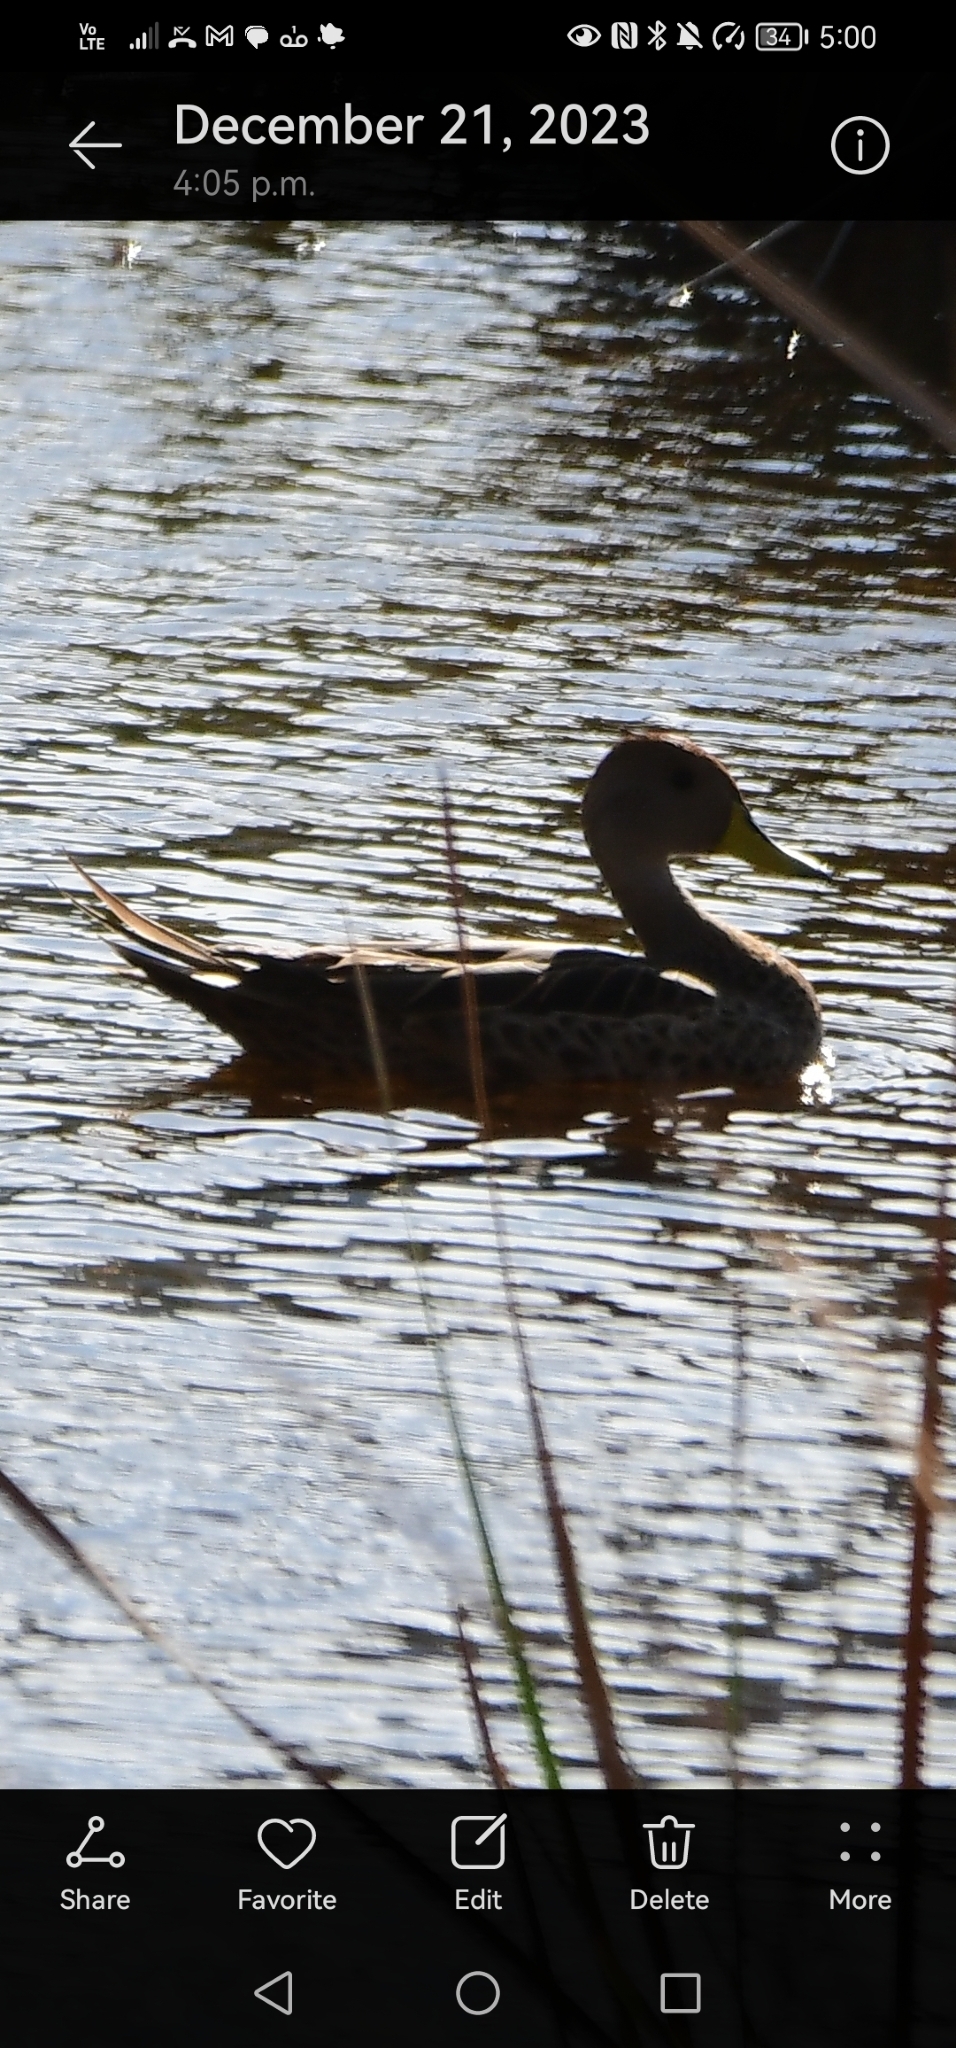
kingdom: Animalia
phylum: Chordata
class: Aves
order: Anseriformes
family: Anatidae
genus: Anas
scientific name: Anas georgica
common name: Yellow-billed pintail
